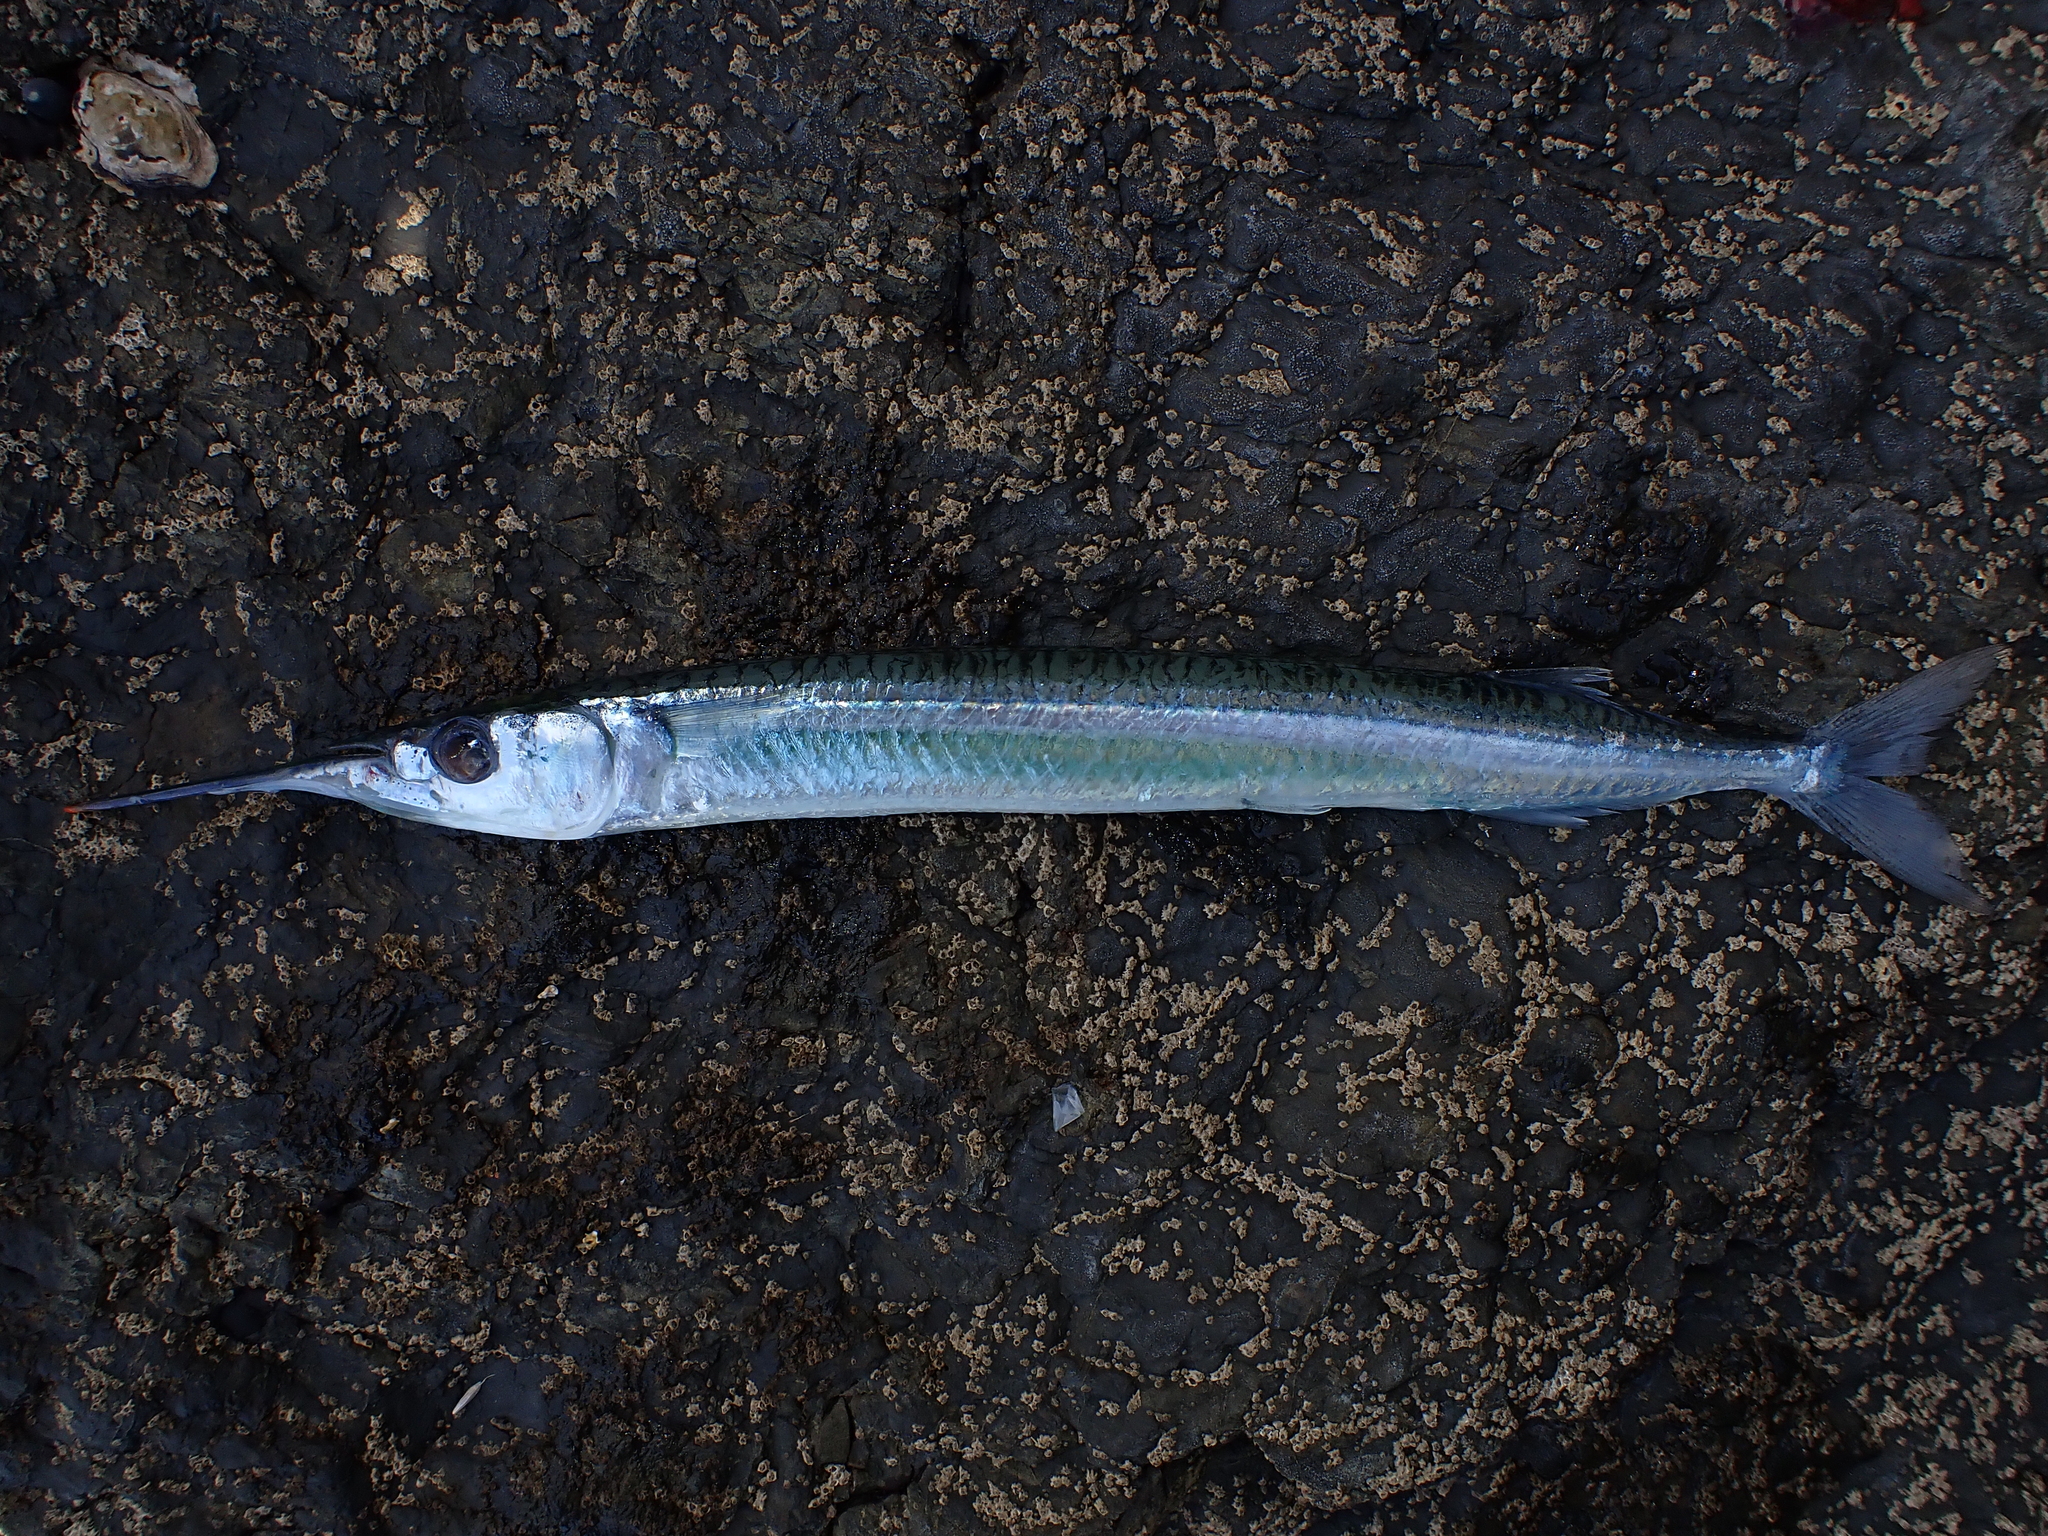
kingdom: Animalia
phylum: Chordata
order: Beloniformes
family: Hemiramphidae
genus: Hyporhamphus
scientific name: Hyporhamphus ihi
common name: Garfish
